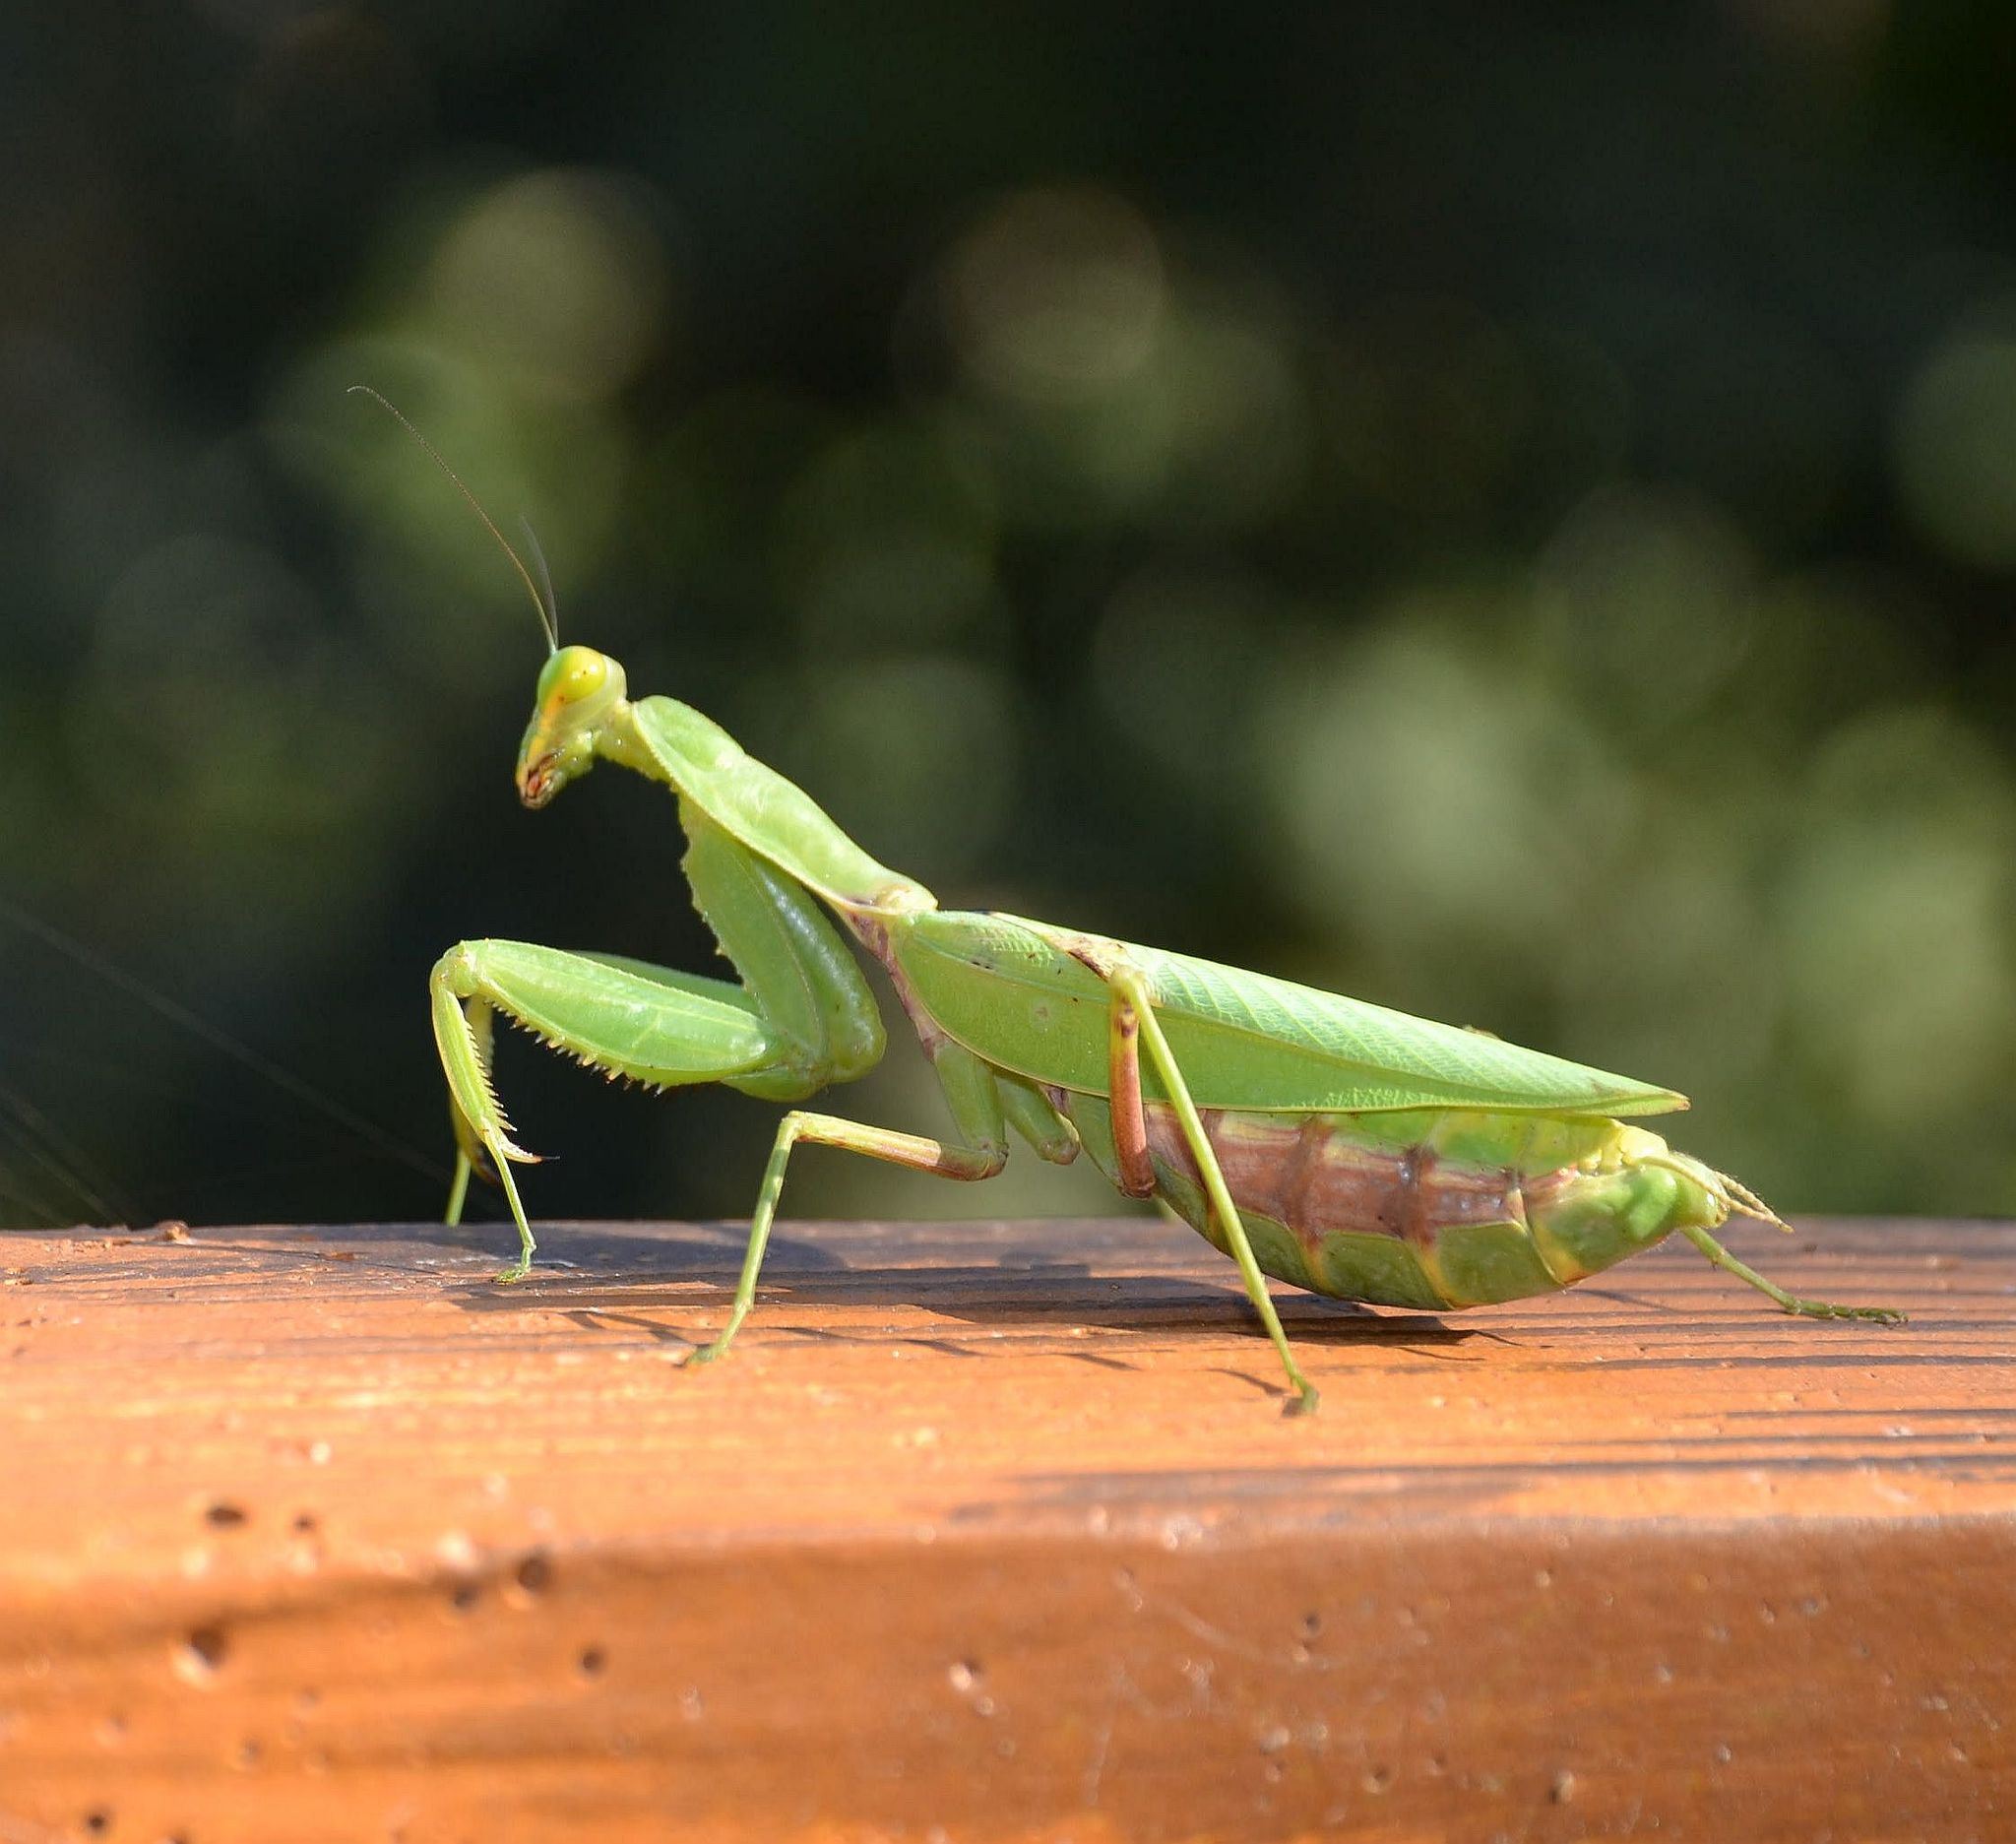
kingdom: Animalia
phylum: Arthropoda
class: Insecta
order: Mantodea
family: Mantidae
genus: Hierodula
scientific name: Hierodula patellifera
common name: Asian mantis
